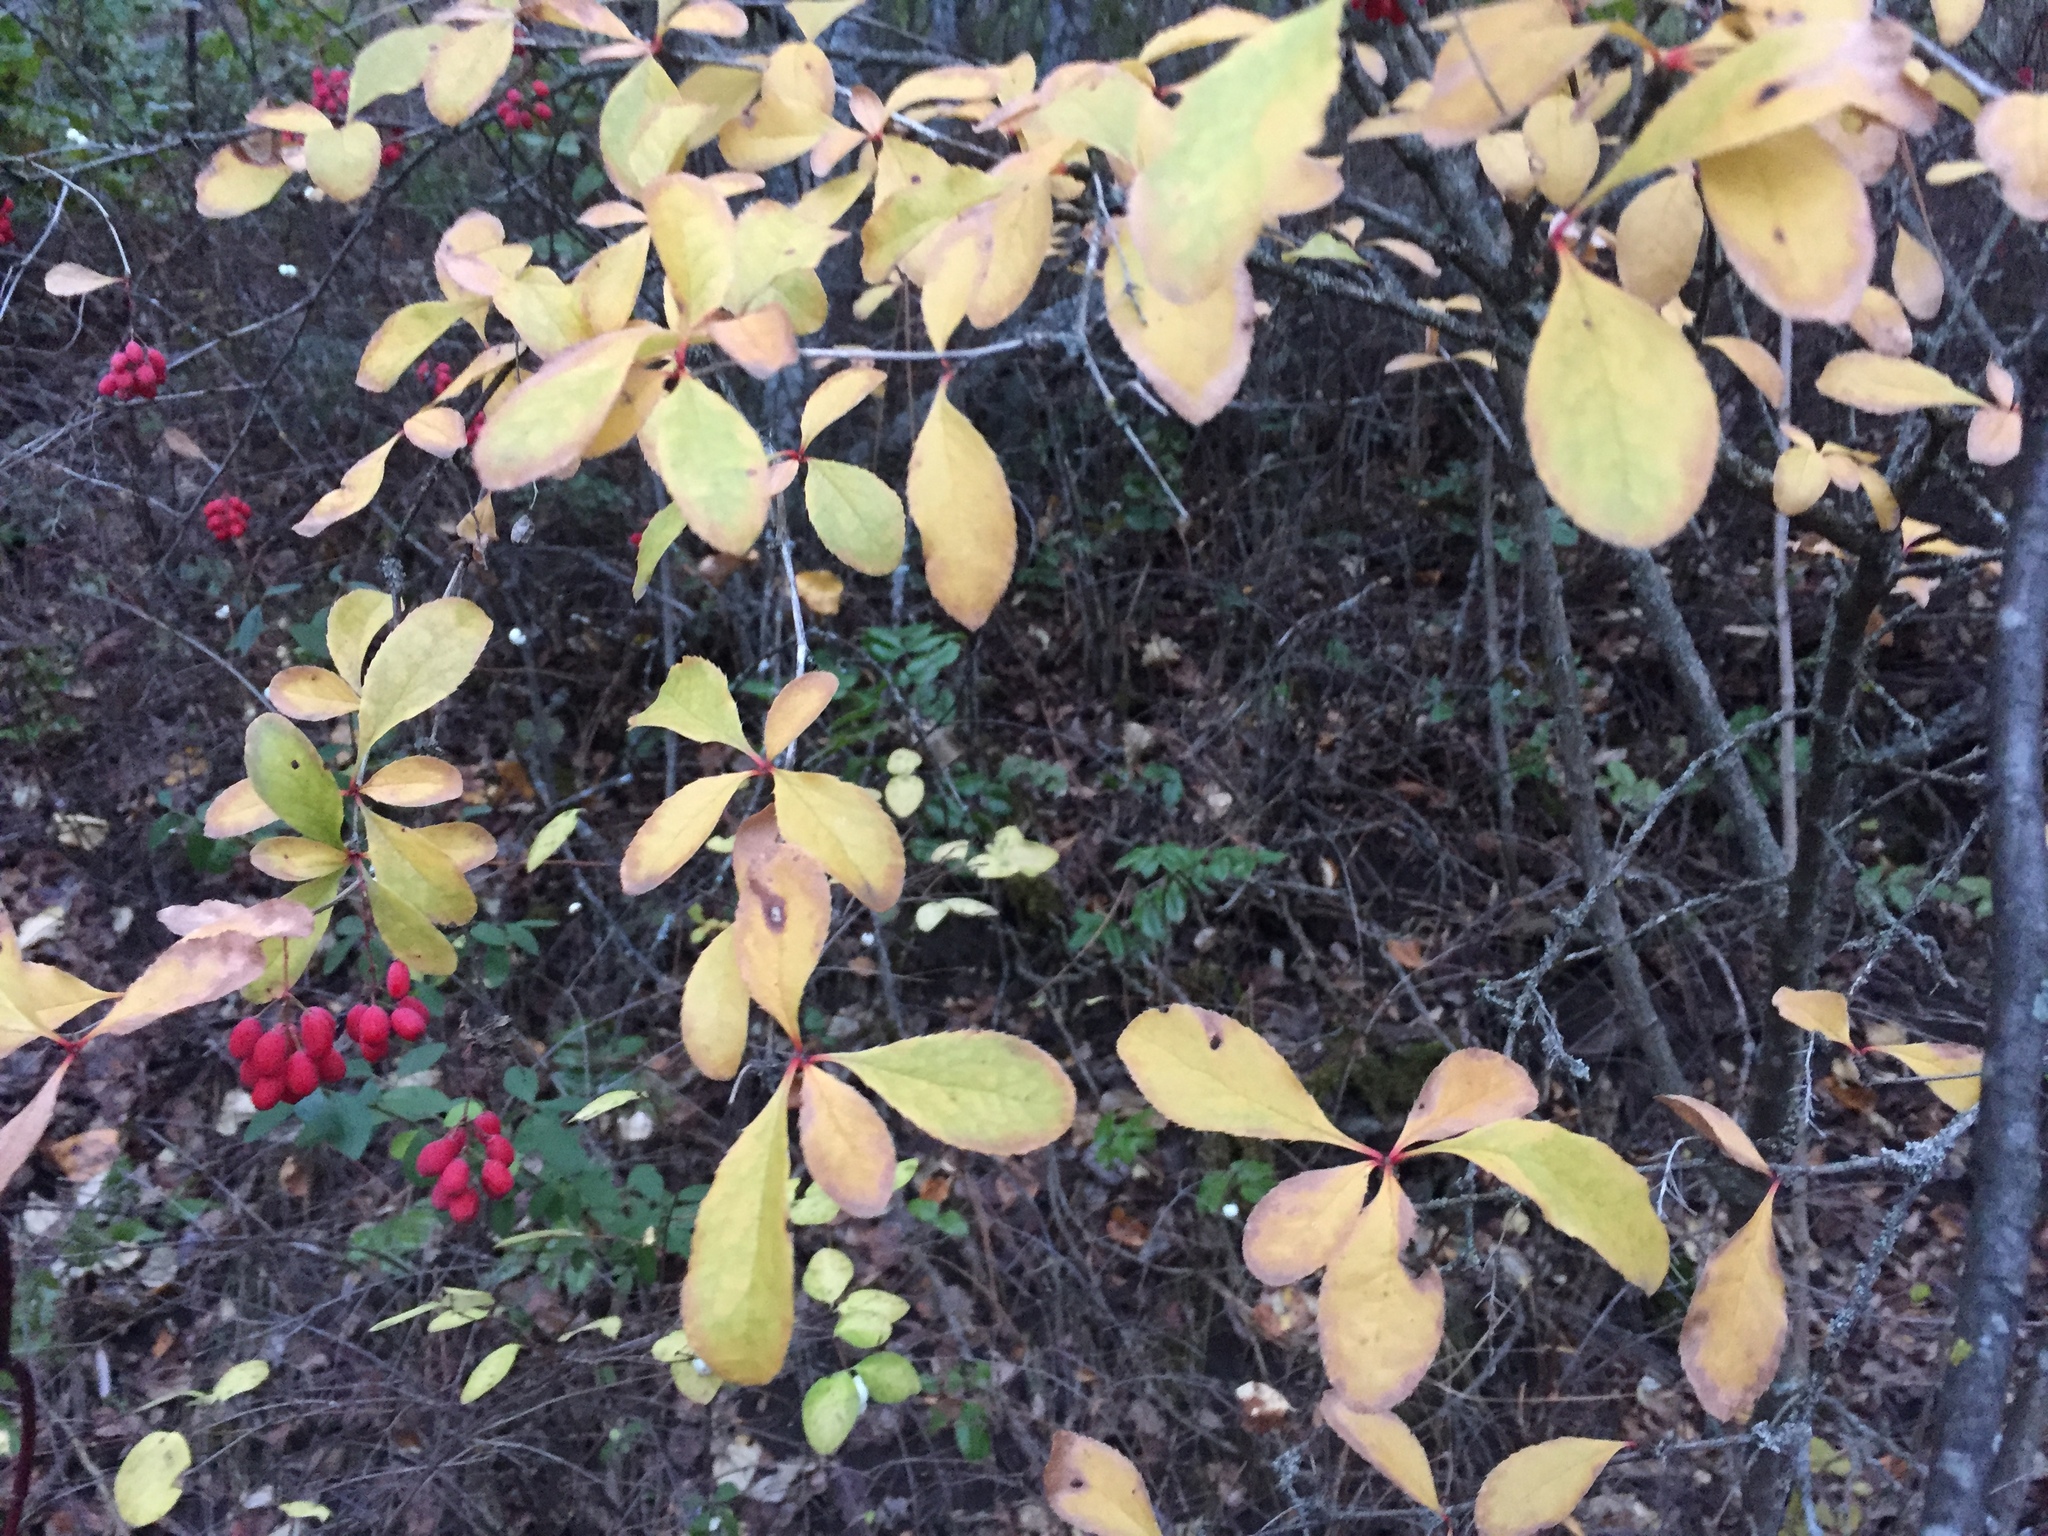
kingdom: Plantae
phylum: Tracheophyta
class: Magnoliopsida
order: Ranunculales
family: Berberidaceae
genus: Berberis
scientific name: Berberis vulgaris
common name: Barberry
